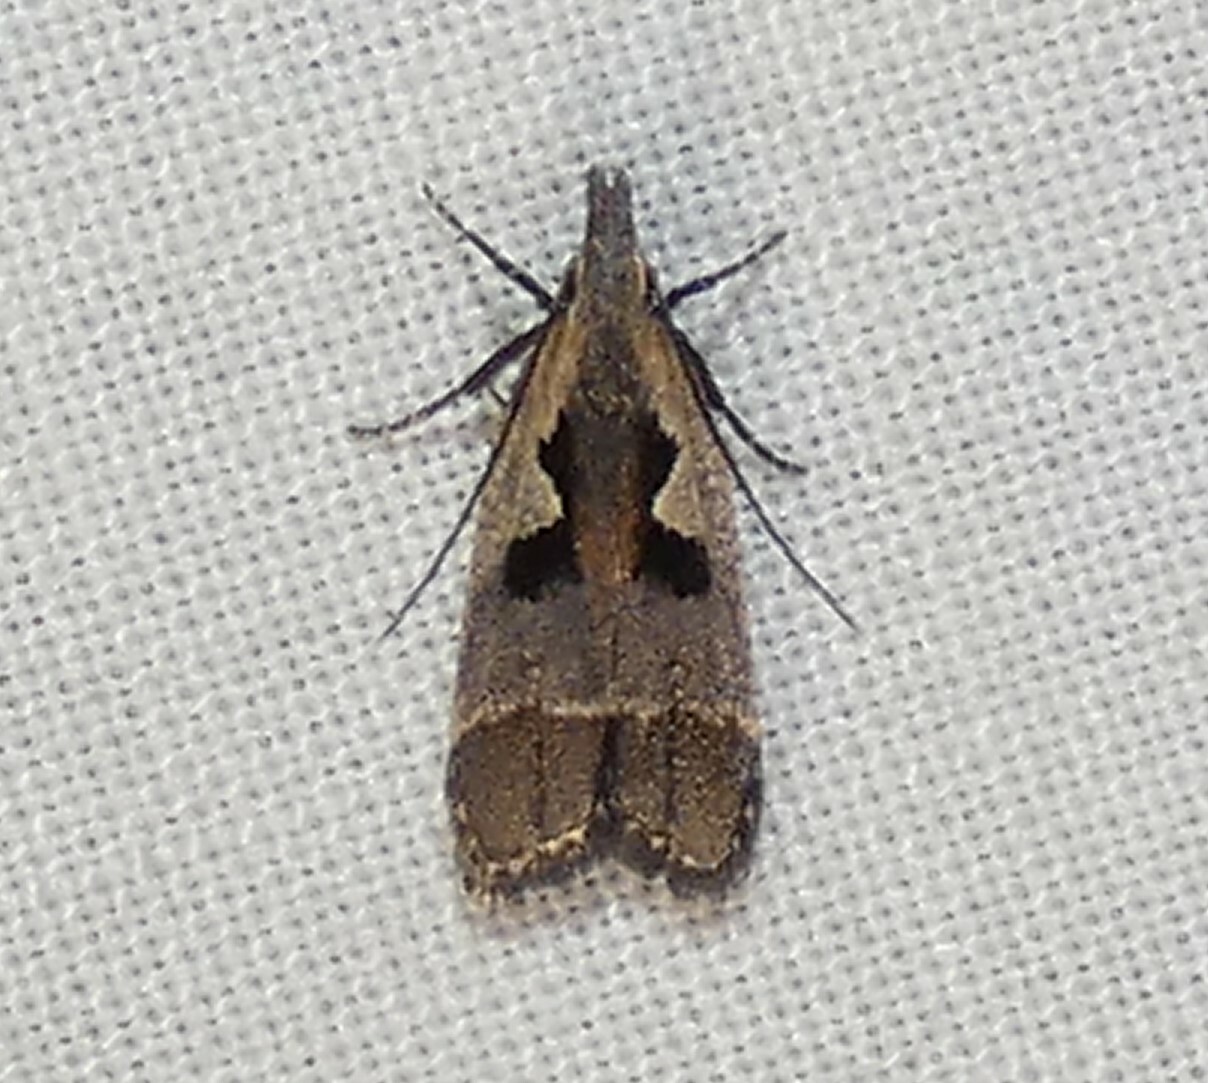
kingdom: Animalia
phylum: Arthropoda
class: Insecta
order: Lepidoptera
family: Gelechiidae
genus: Dichomeris
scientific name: Dichomeris bilobella
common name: Bilobed dichomeris moth
